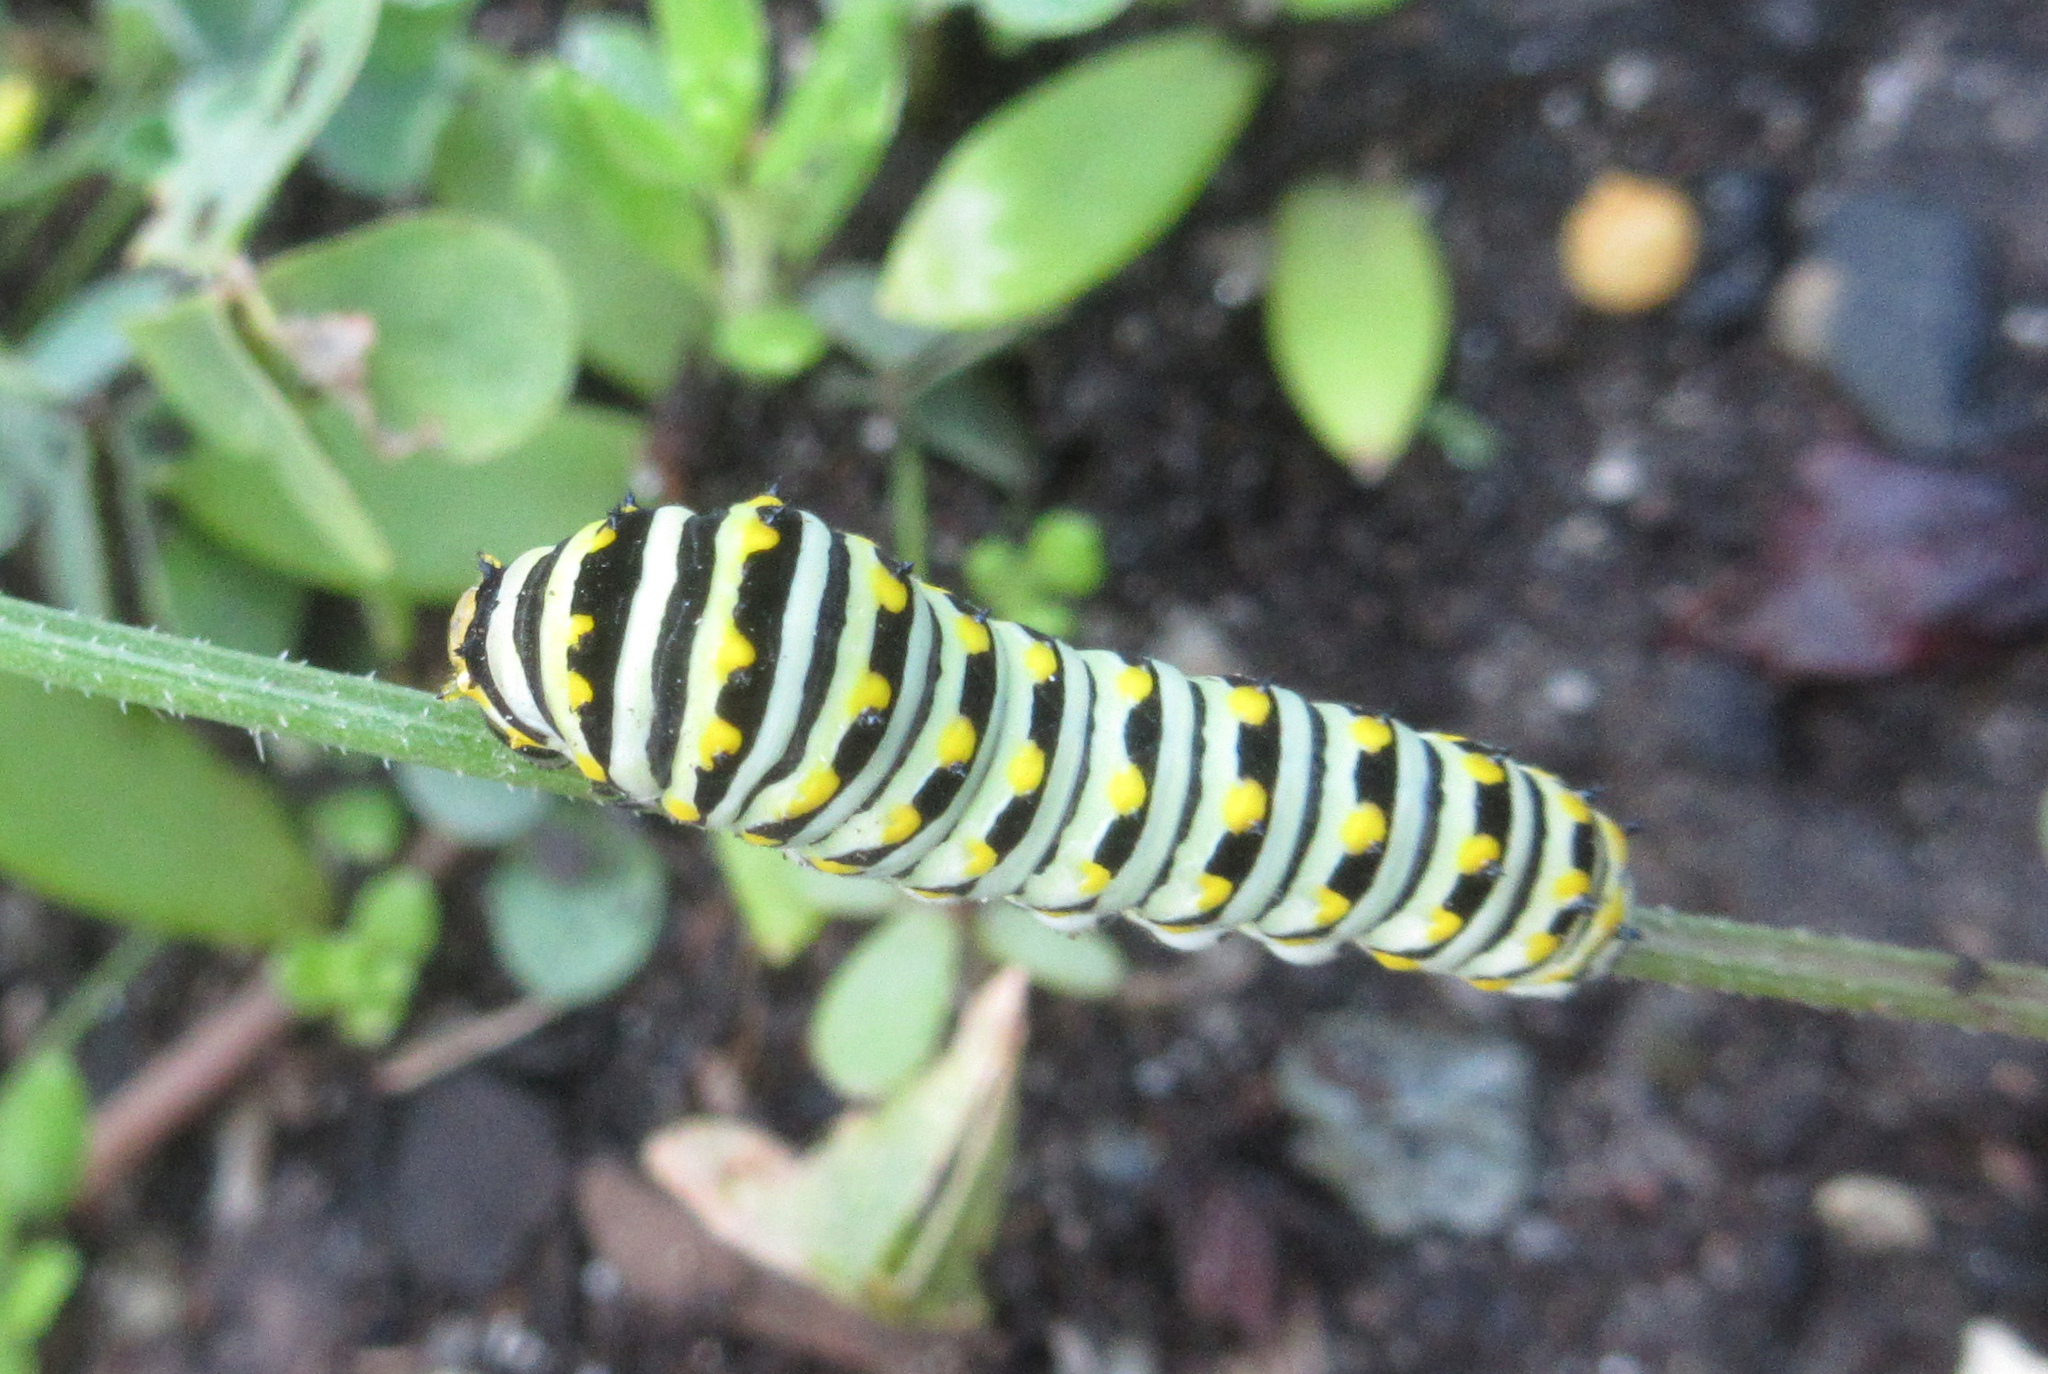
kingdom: Animalia
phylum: Arthropoda
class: Insecta
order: Lepidoptera
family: Papilionidae
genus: Papilio
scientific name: Papilio polyxenes
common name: Black swallowtail
